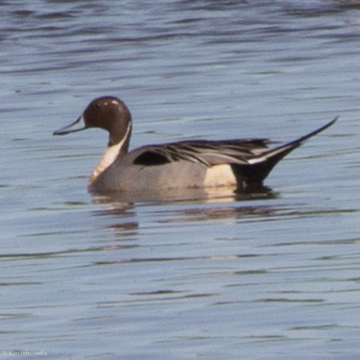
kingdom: Animalia
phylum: Chordata
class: Aves
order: Anseriformes
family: Anatidae
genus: Anas
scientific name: Anas acuta
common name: Northern pintail
